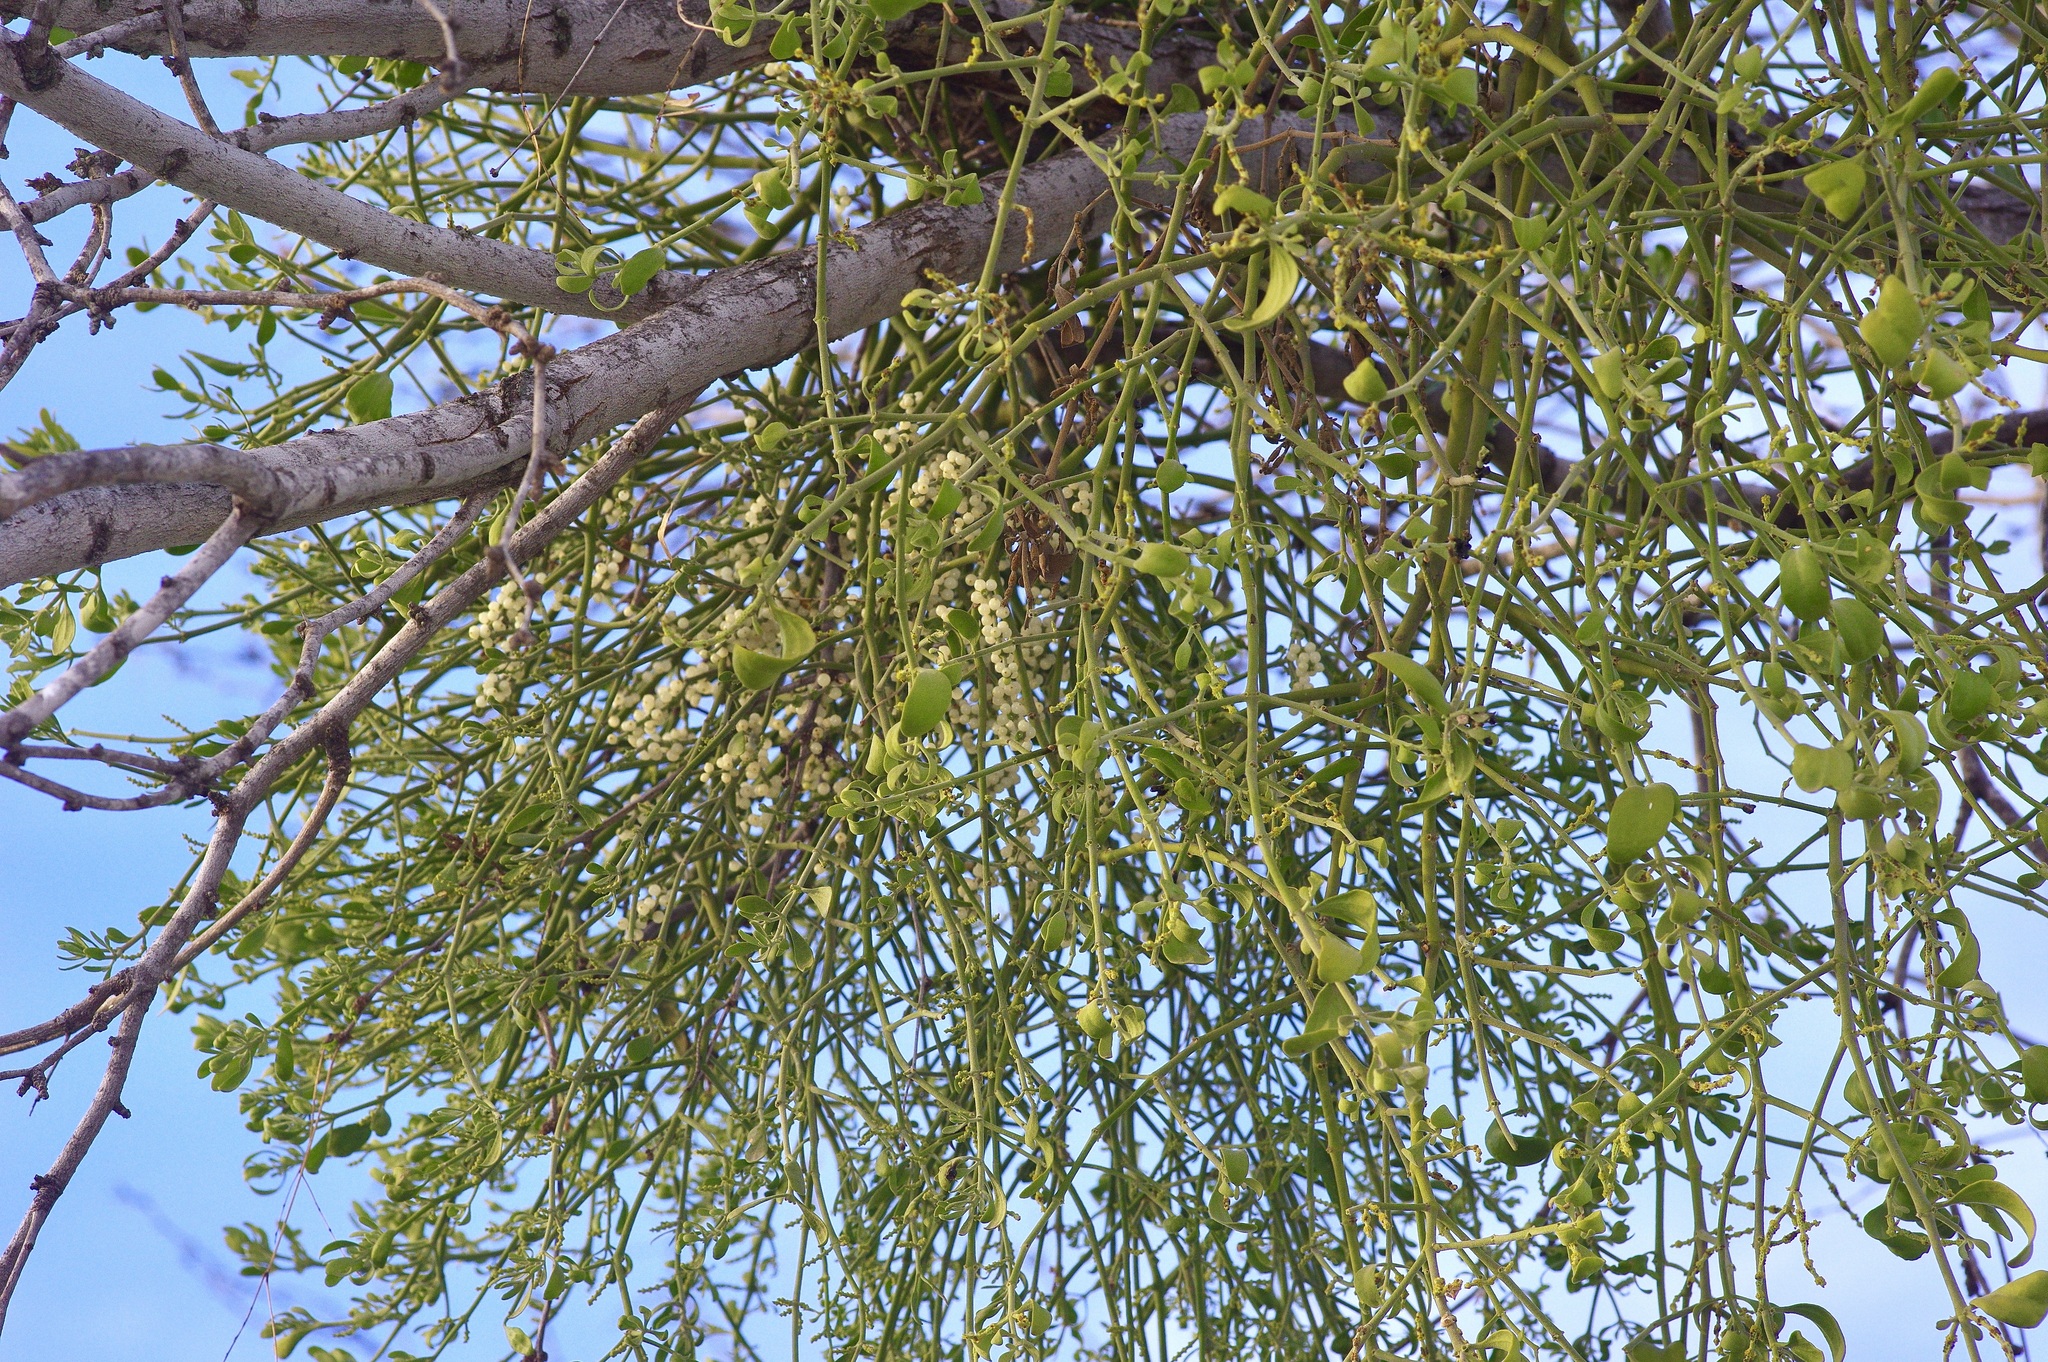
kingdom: Plantae
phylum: Tracheophyta
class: Magnoliopsida
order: Santalales
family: Viscaceae
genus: Phoradendron
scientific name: Phoradendron leucarpum
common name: Pacific mistletoe
